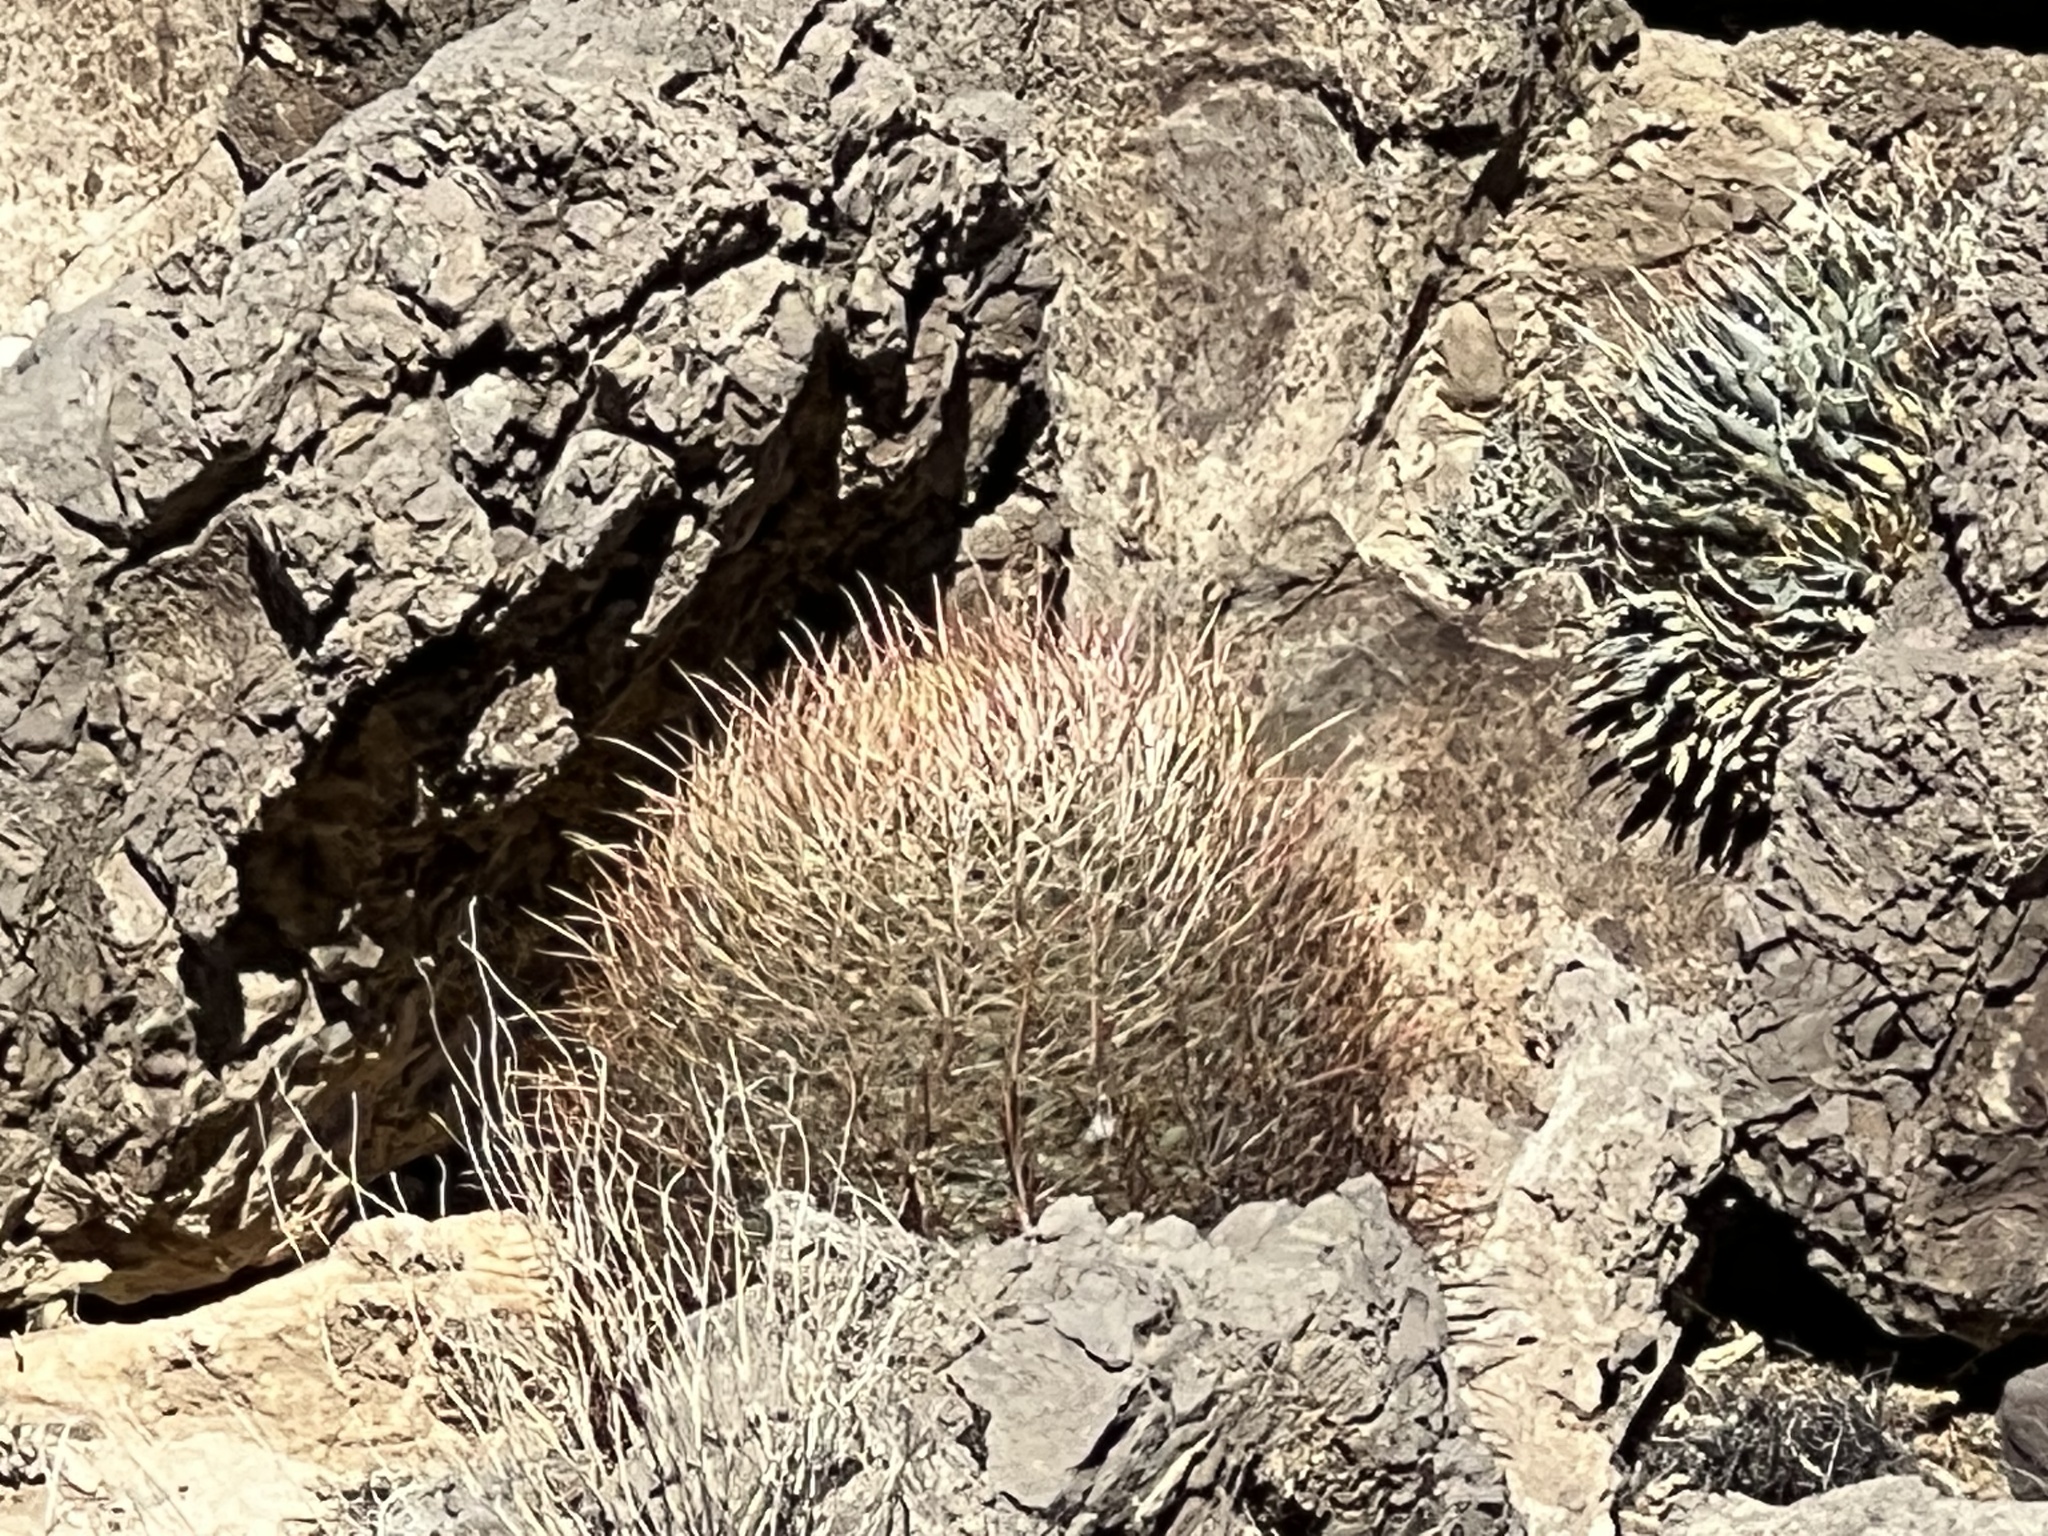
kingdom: Plantae
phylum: Tracheophyta
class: Magnoliopsida
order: Caryophyllales
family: Cactaceae
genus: Ferocactus
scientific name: Ferocactus cylindraceus
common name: California barrel cactus
